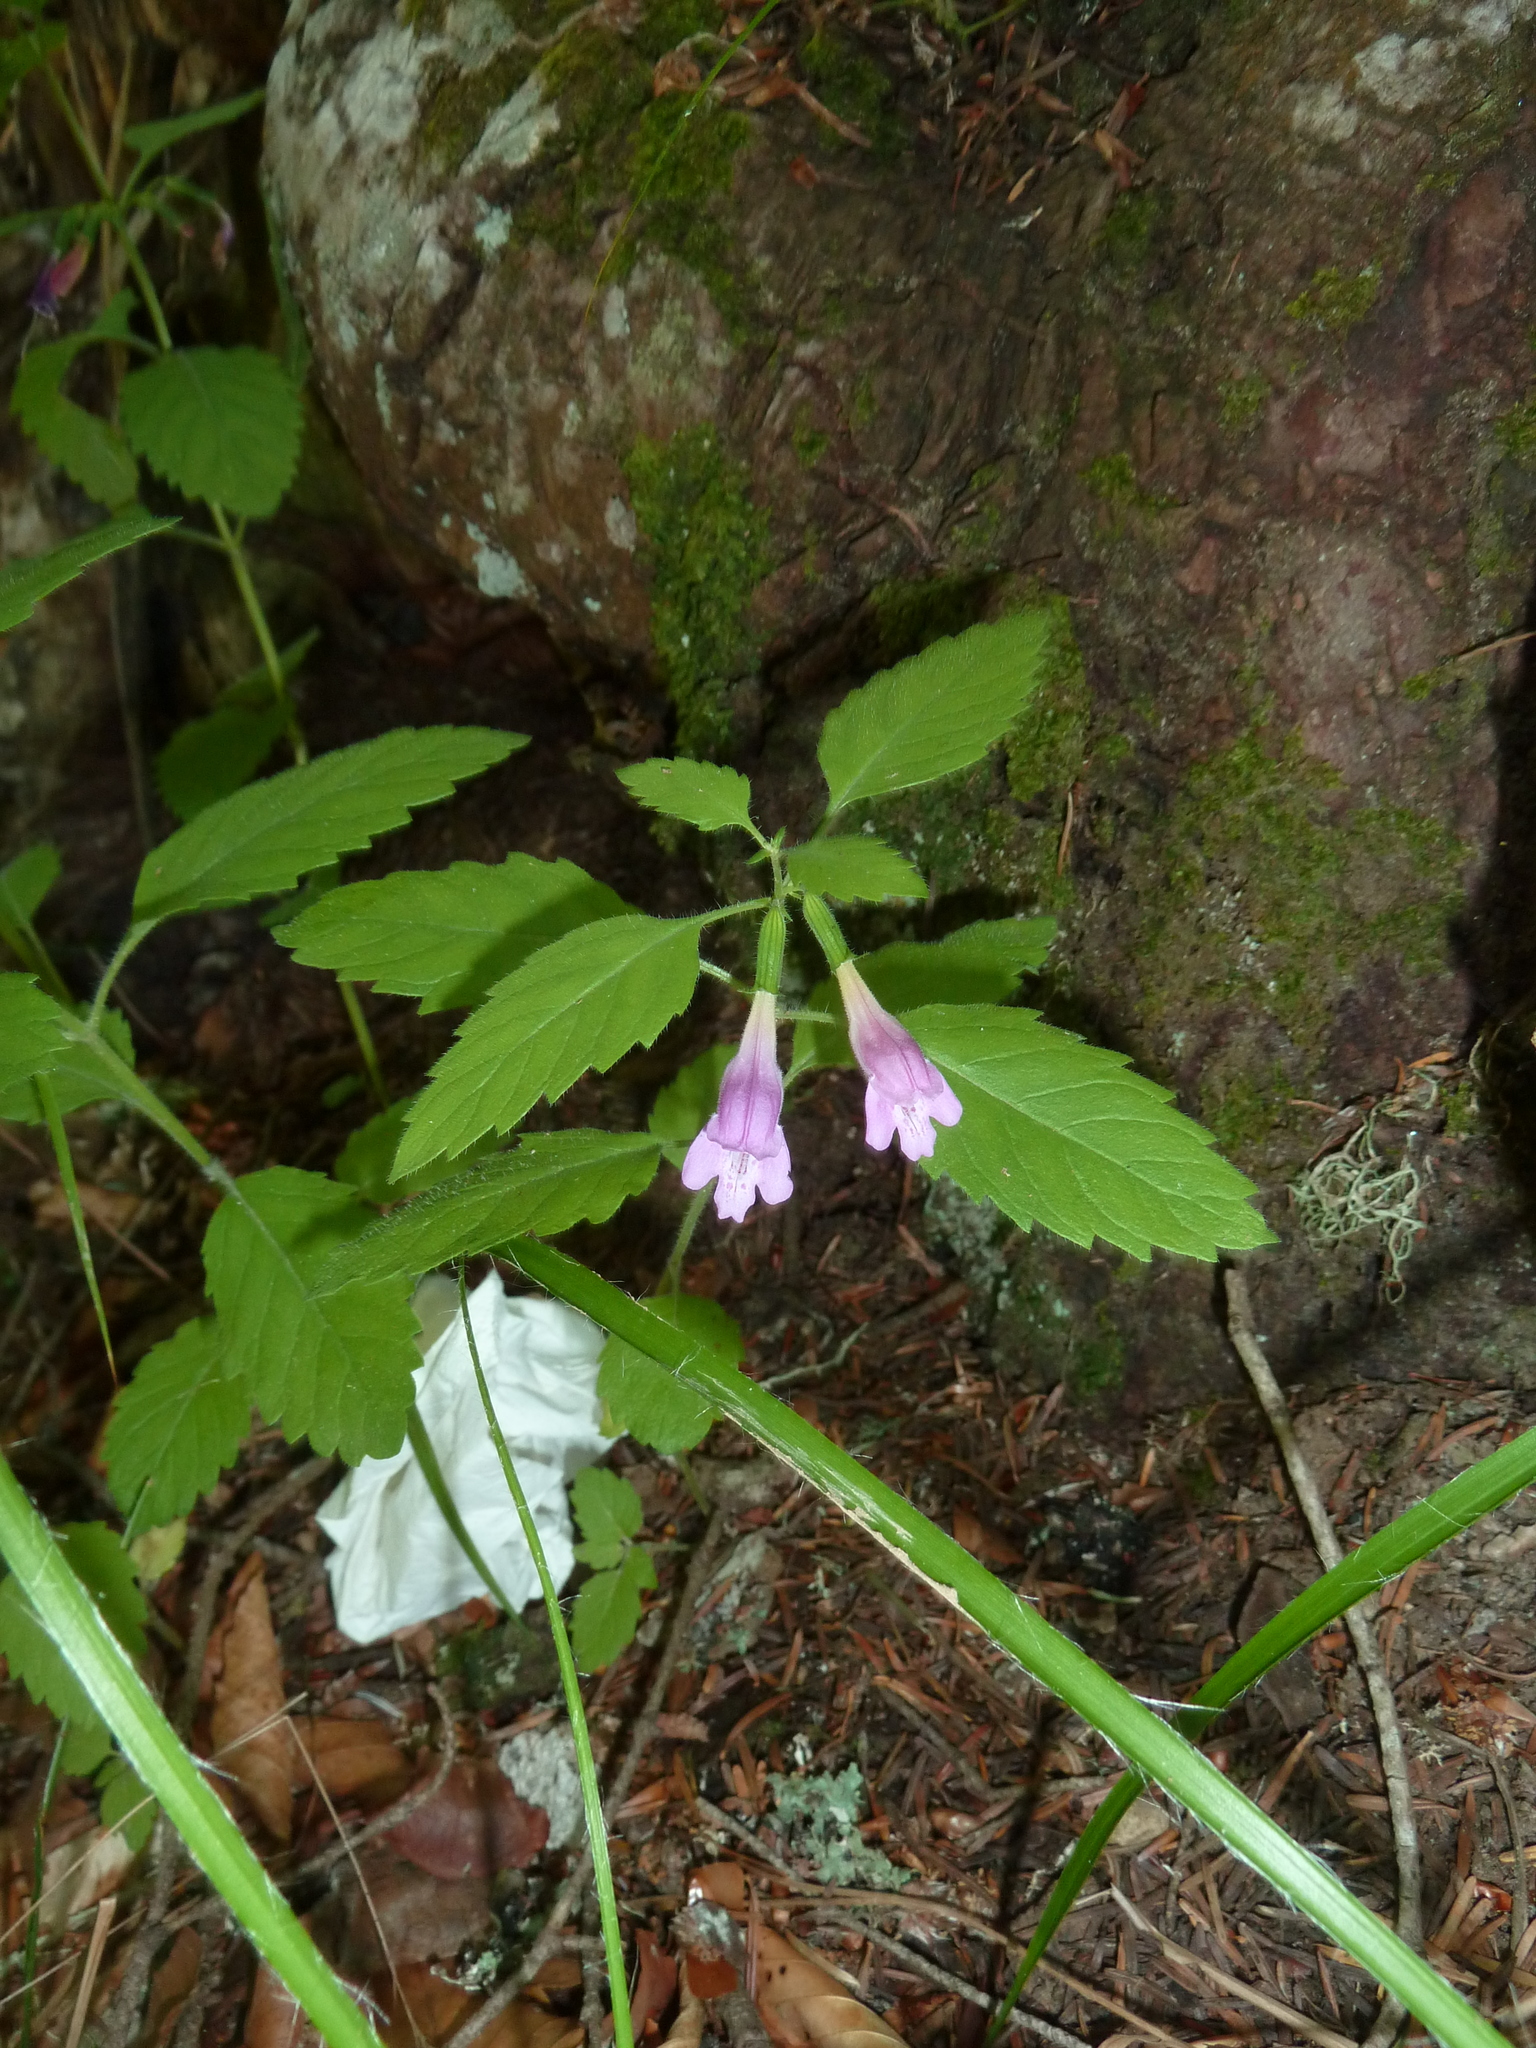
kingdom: Plantae
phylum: Tracheophyta
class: Magnoliopsida
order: Lamiales
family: Lamiaceae
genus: Melittis
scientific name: Melittis melissophyllum
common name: Bastard balm
